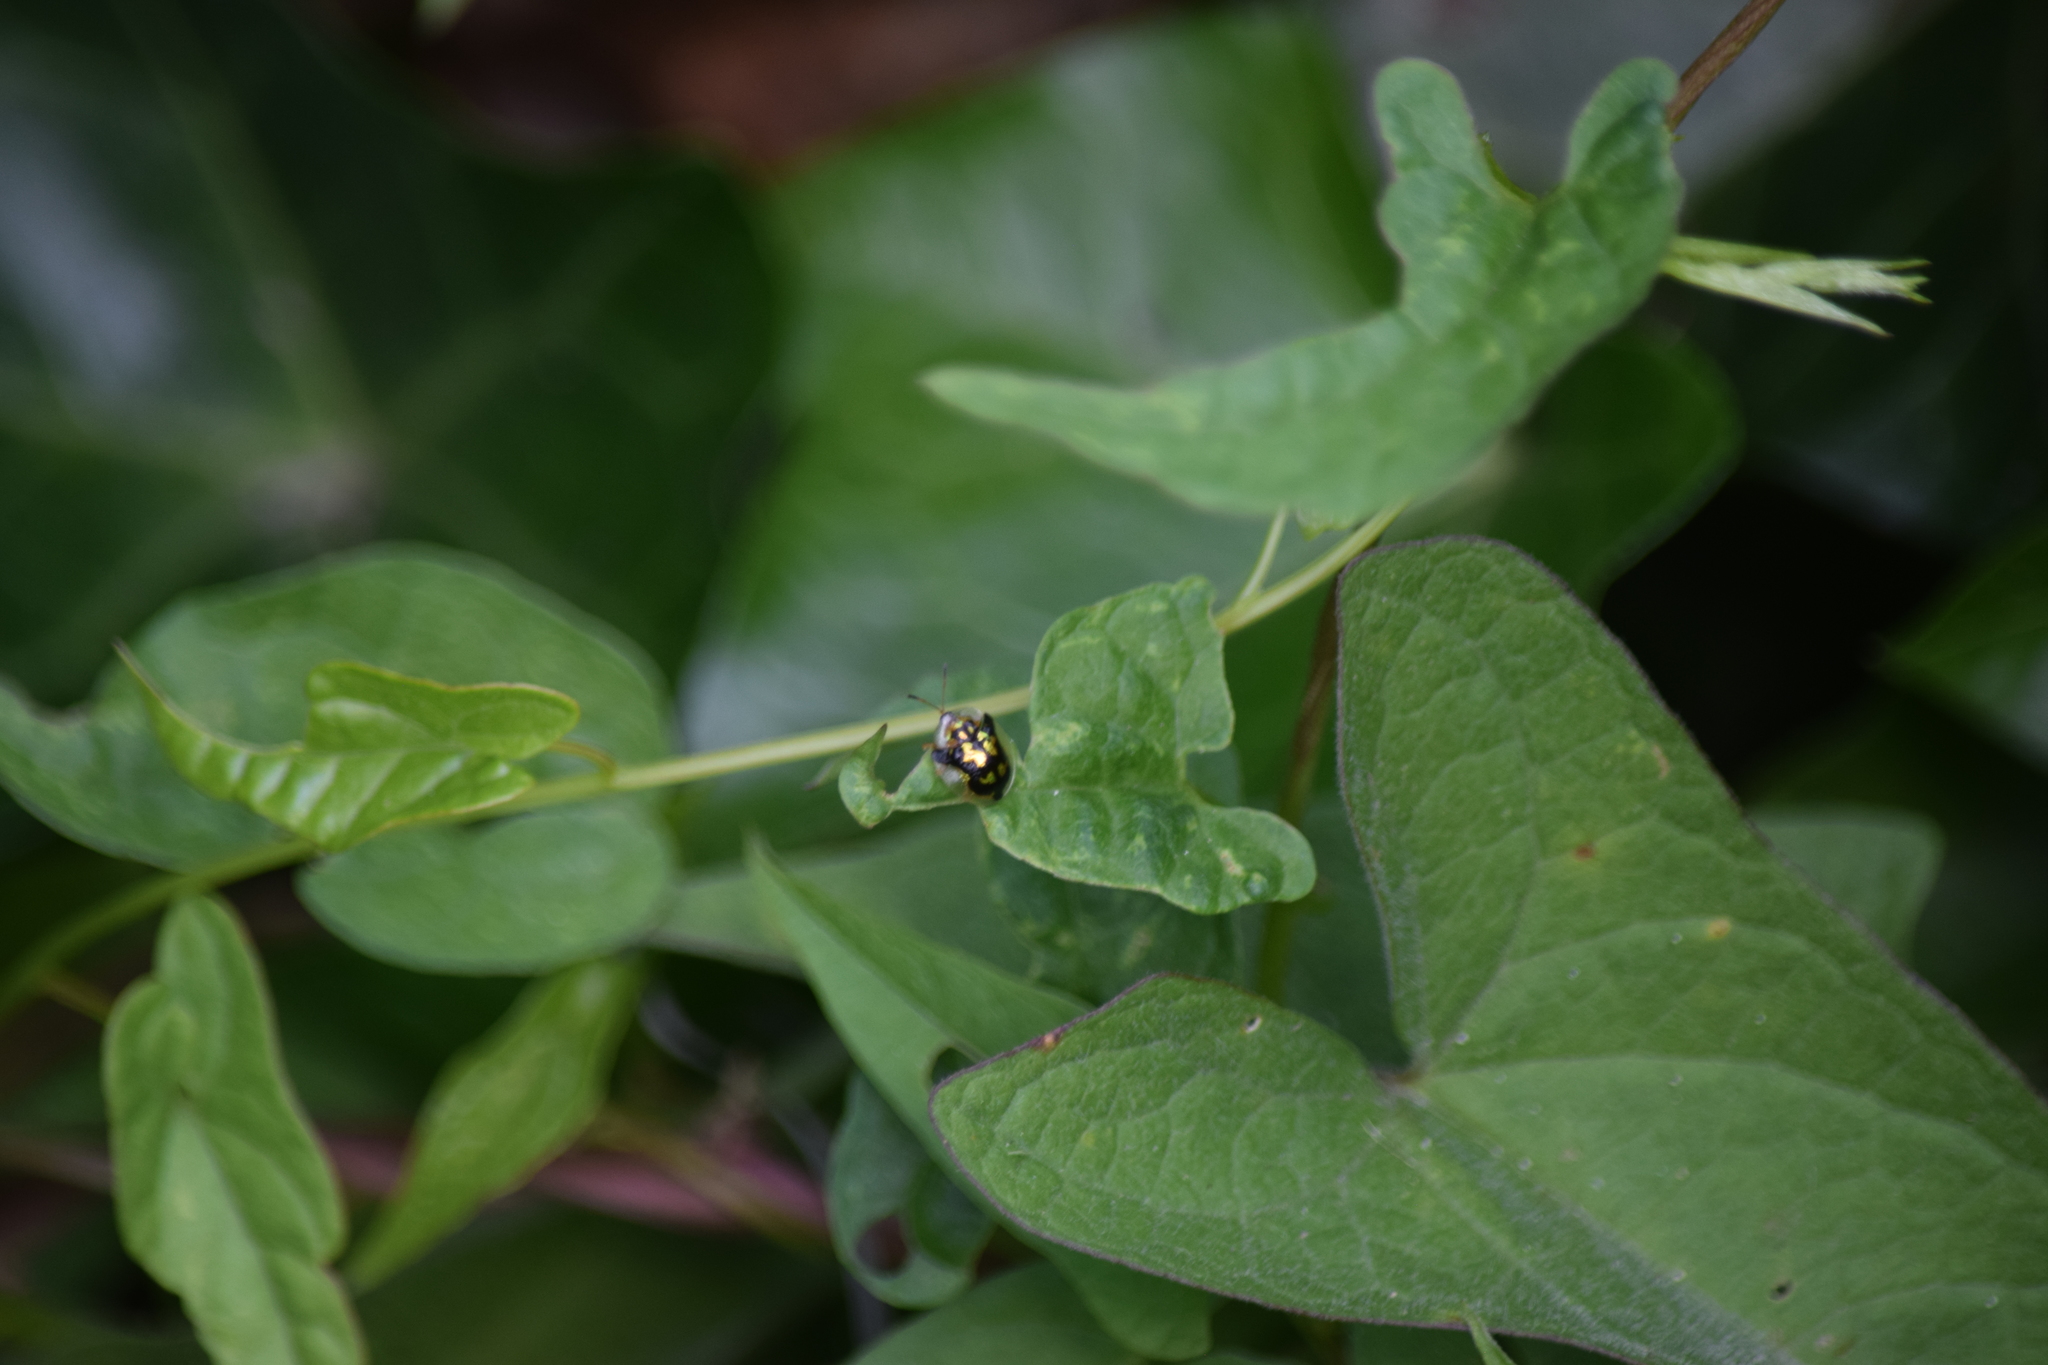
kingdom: Animalia
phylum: Arthropoda
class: Insecta
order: Coleoptera
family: Chrysomelidae
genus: Deloyala
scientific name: Deloyala guttata
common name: Mottled tortoise beetle
